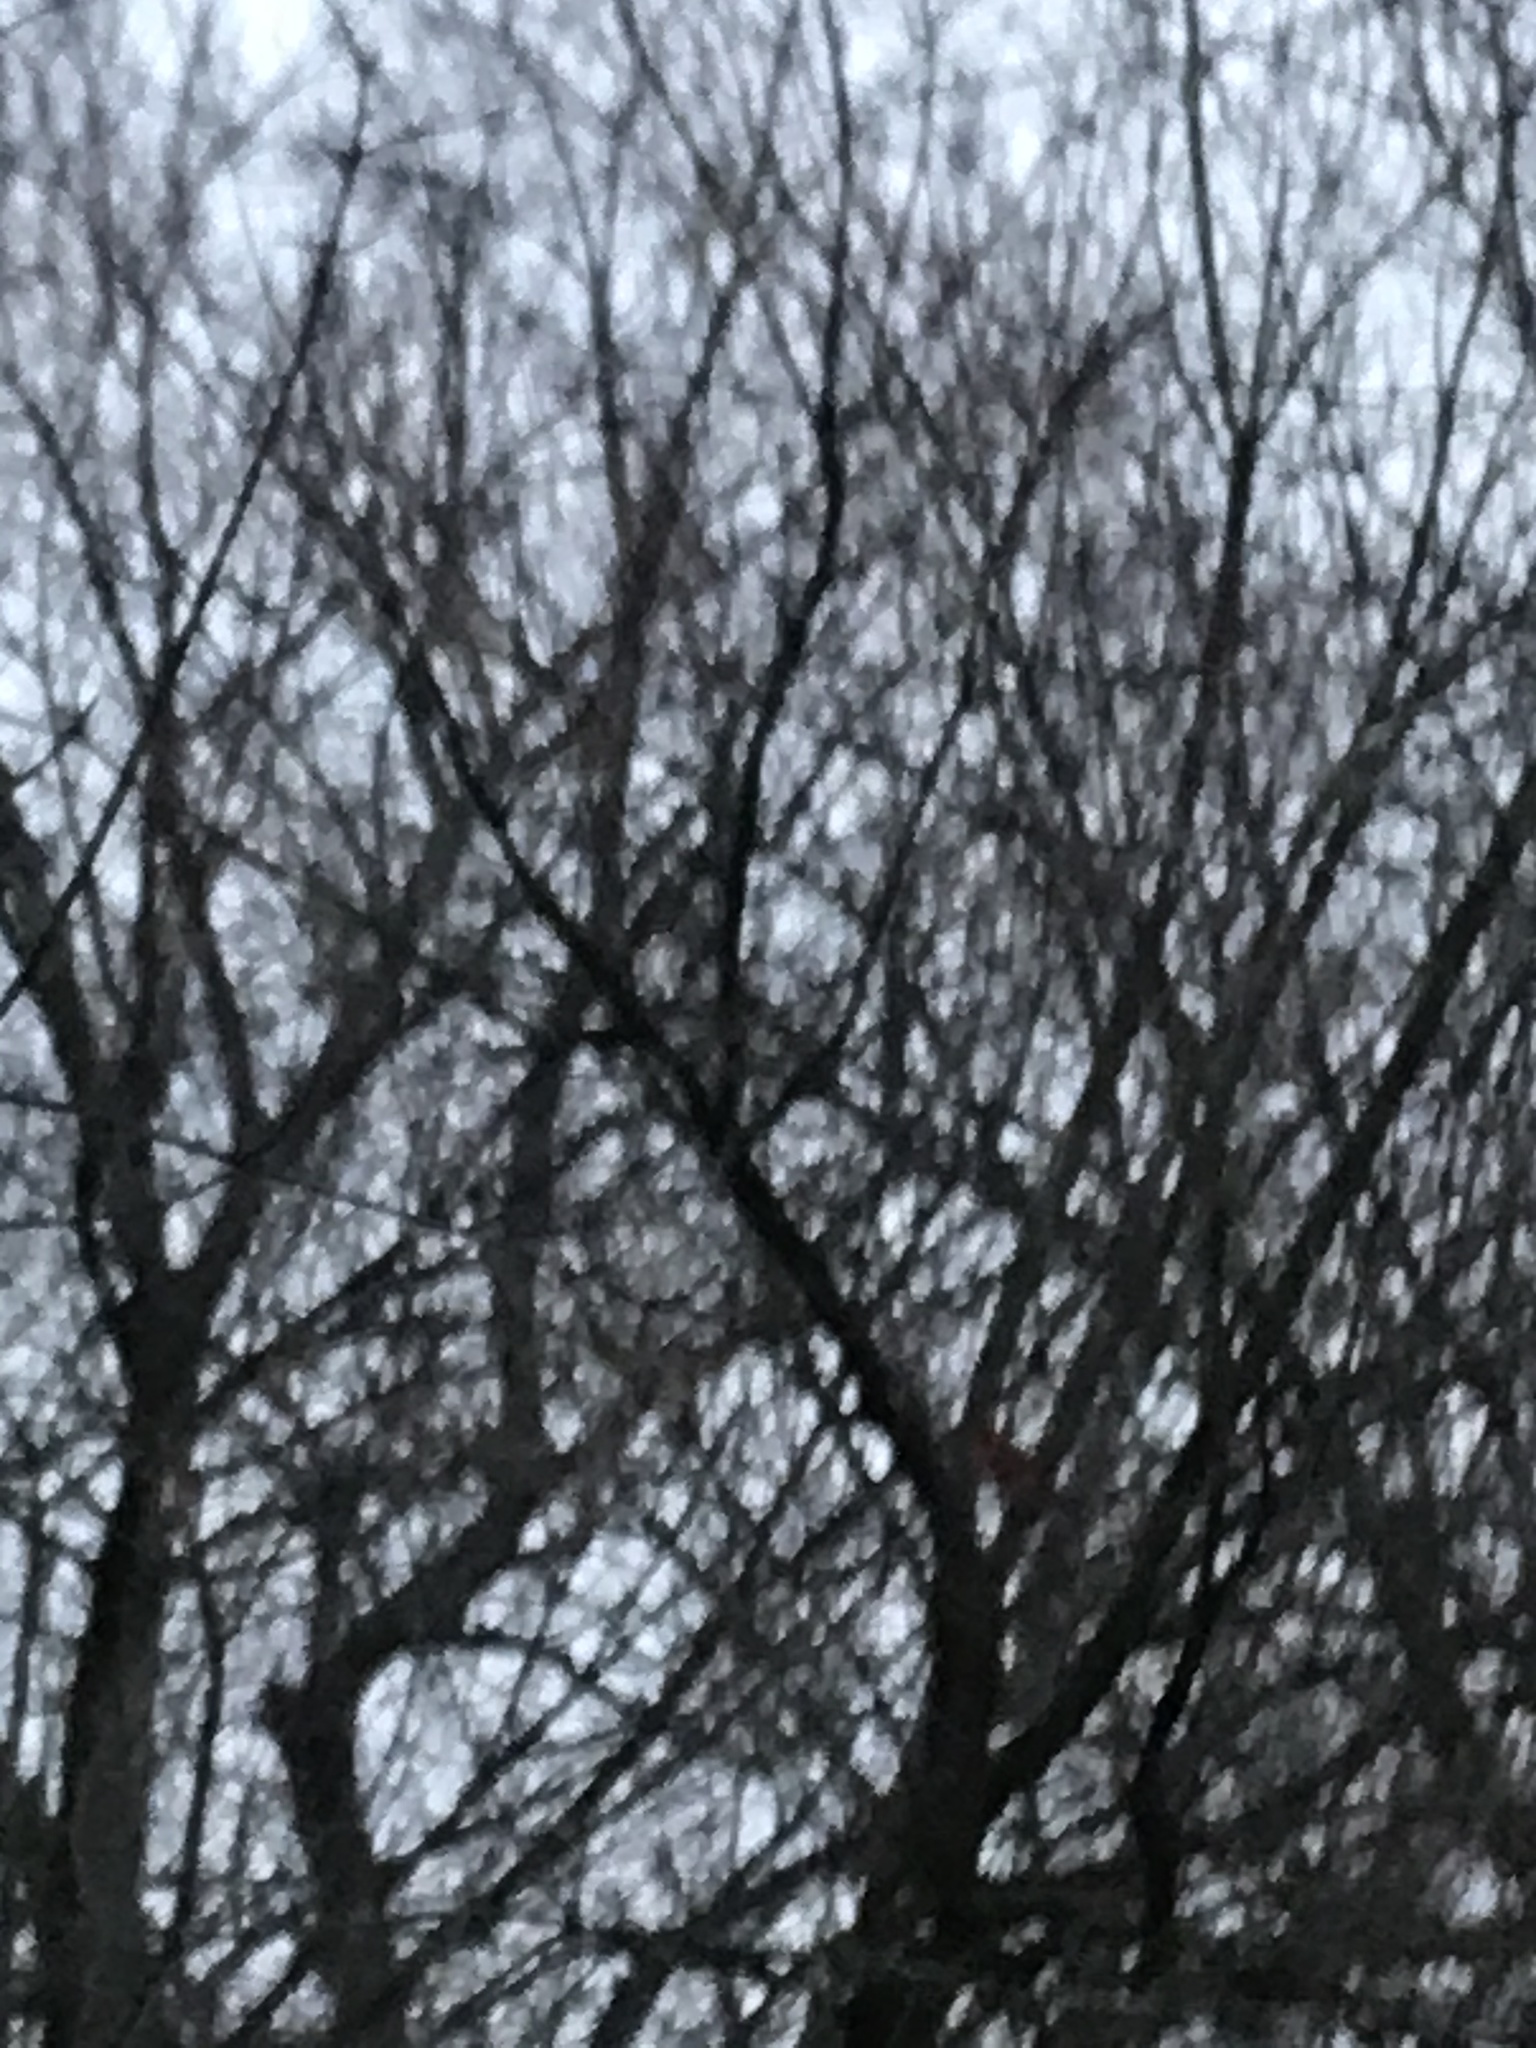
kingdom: Animalia
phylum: Chordata
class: Aves
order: Passeriformes
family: Cardinalidae
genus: Cardinalis
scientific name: Cardinalis cardinalis
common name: Northern cardinal
